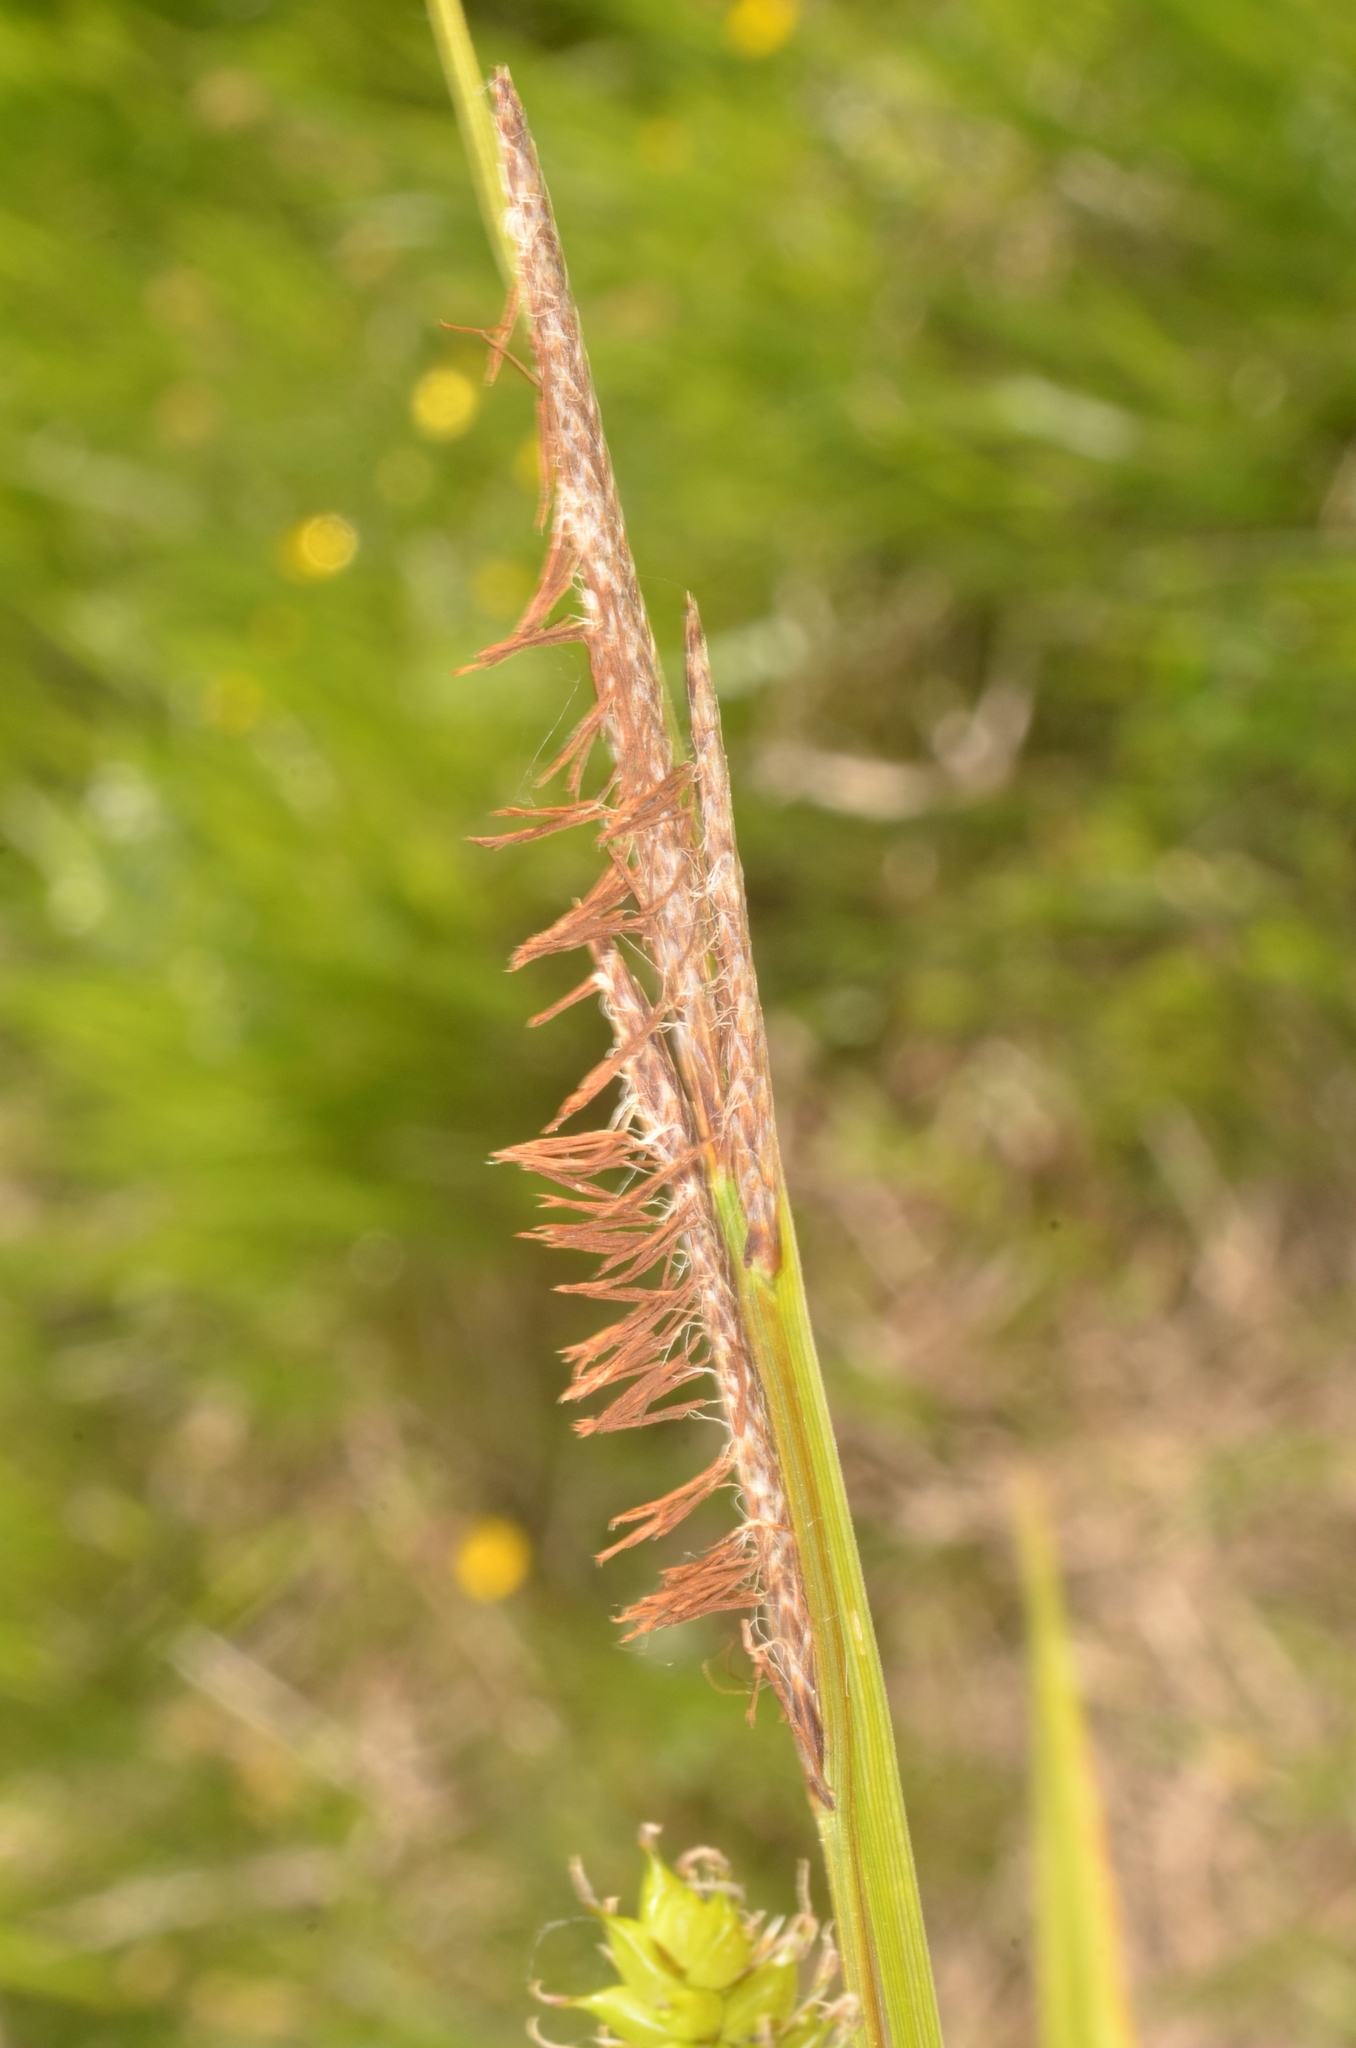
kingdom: Plantae
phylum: Tracheophyta
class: Liliopsida
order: Poales
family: Cyperaceae
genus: Carex
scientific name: Carex vesicaria
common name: Bladder-sedge
